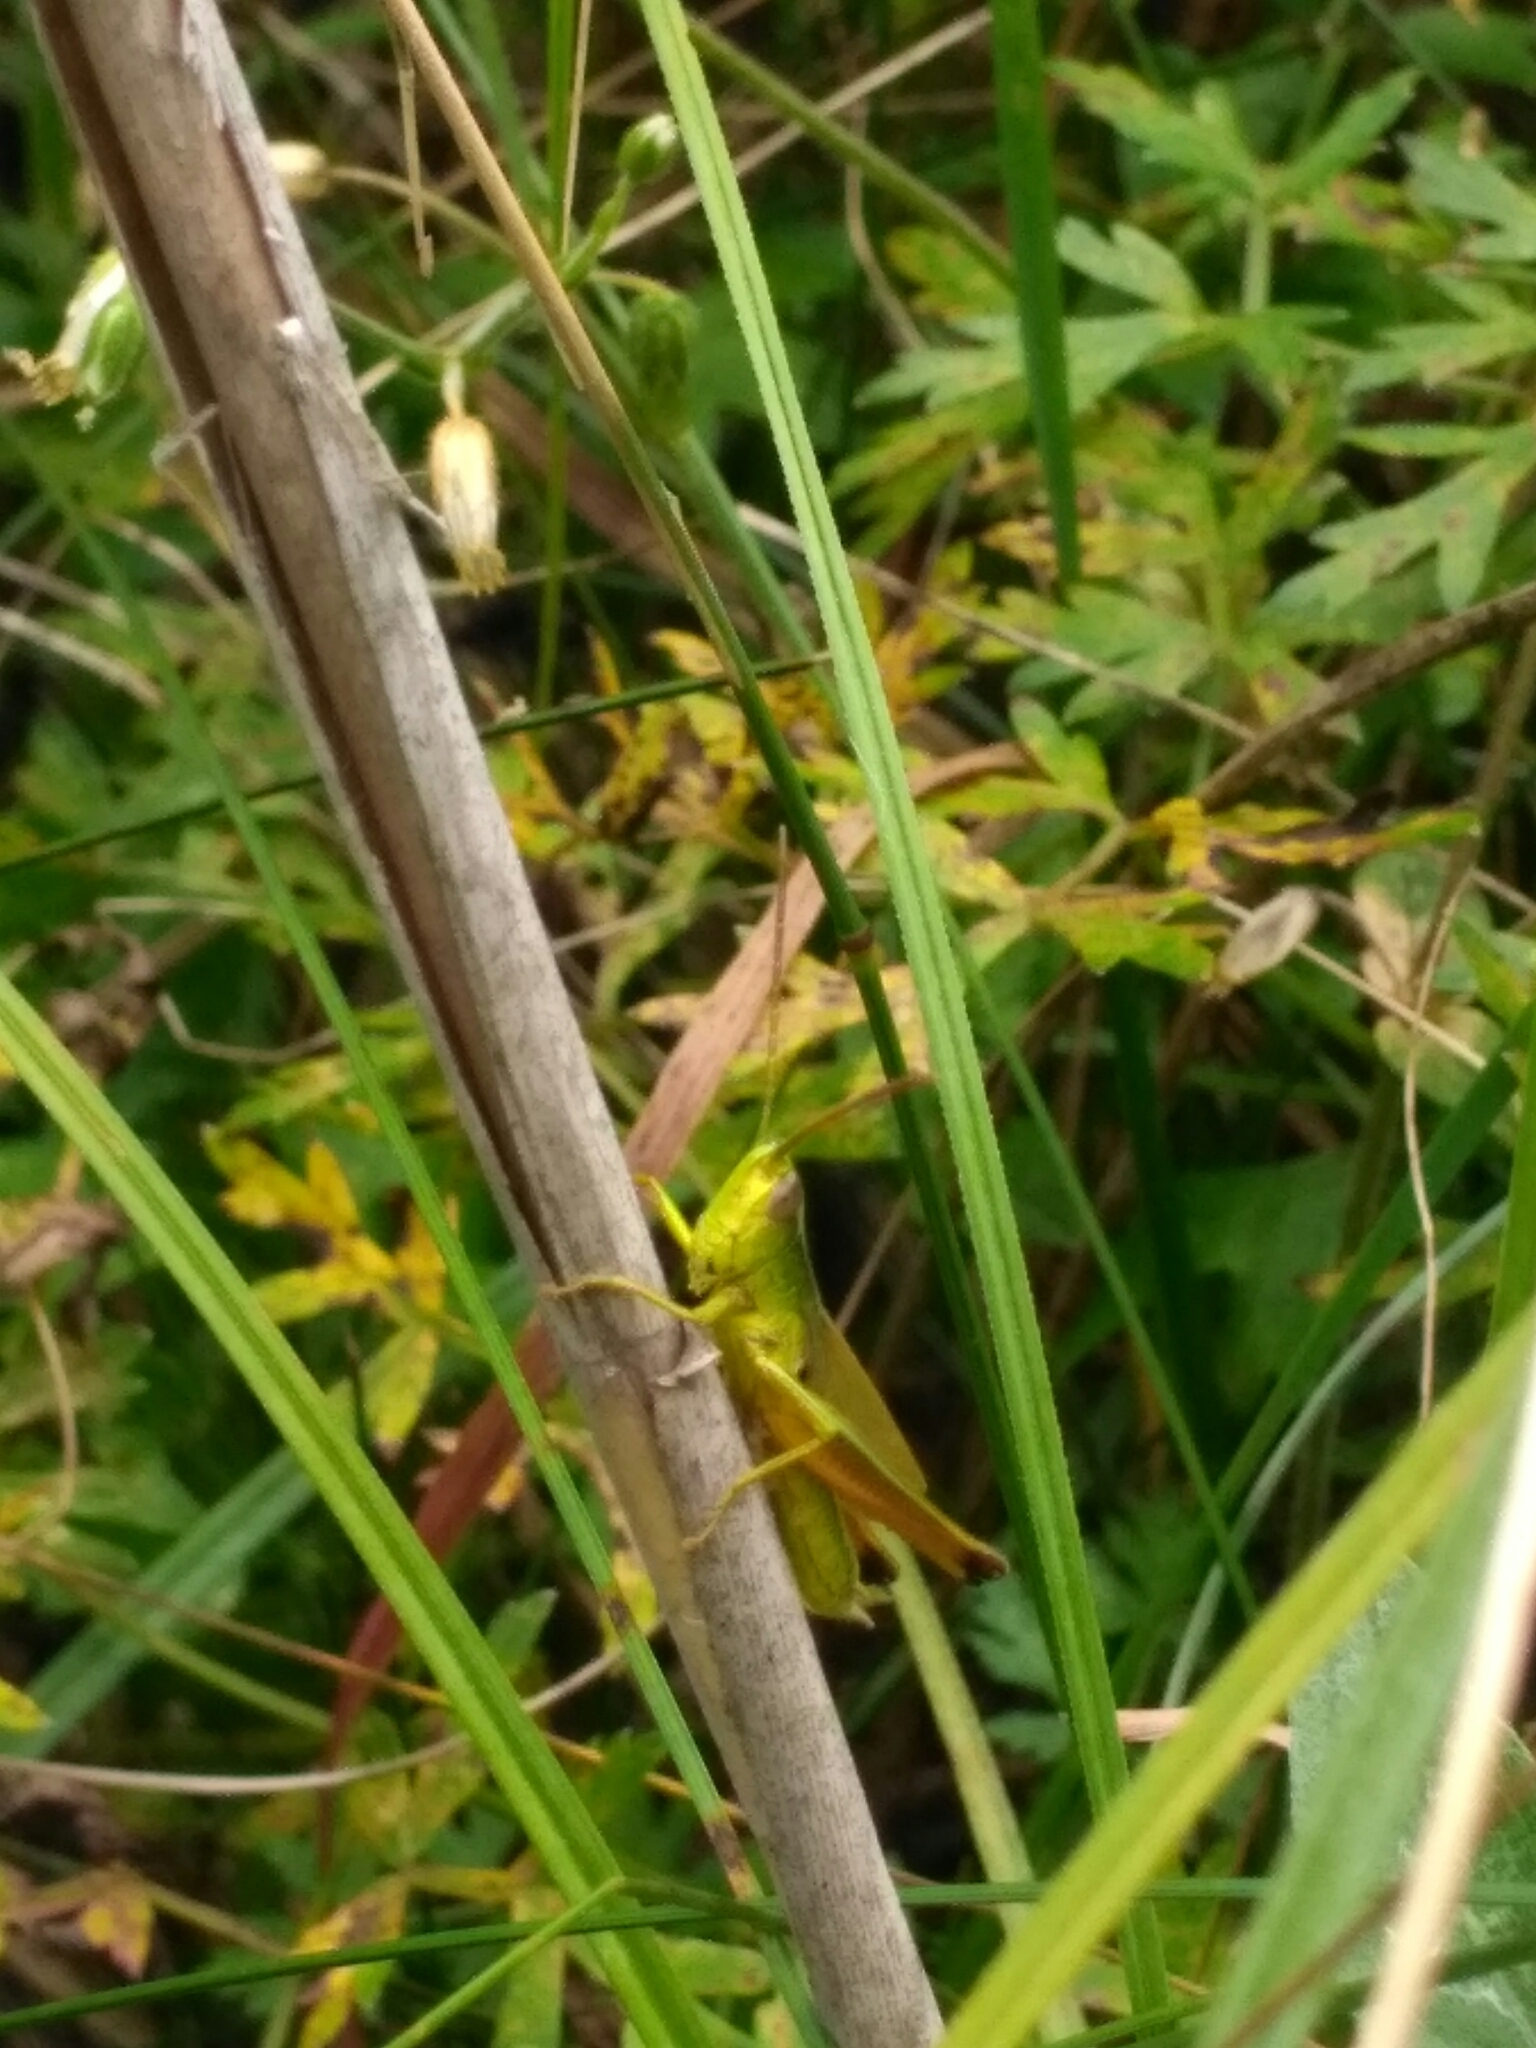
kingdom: Animalia
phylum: Arthropoda
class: Insecta
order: Orthoptera
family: Acrididae
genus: Chrysochraon
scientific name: Chrysochraon dispar
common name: Large gold grasshopper
